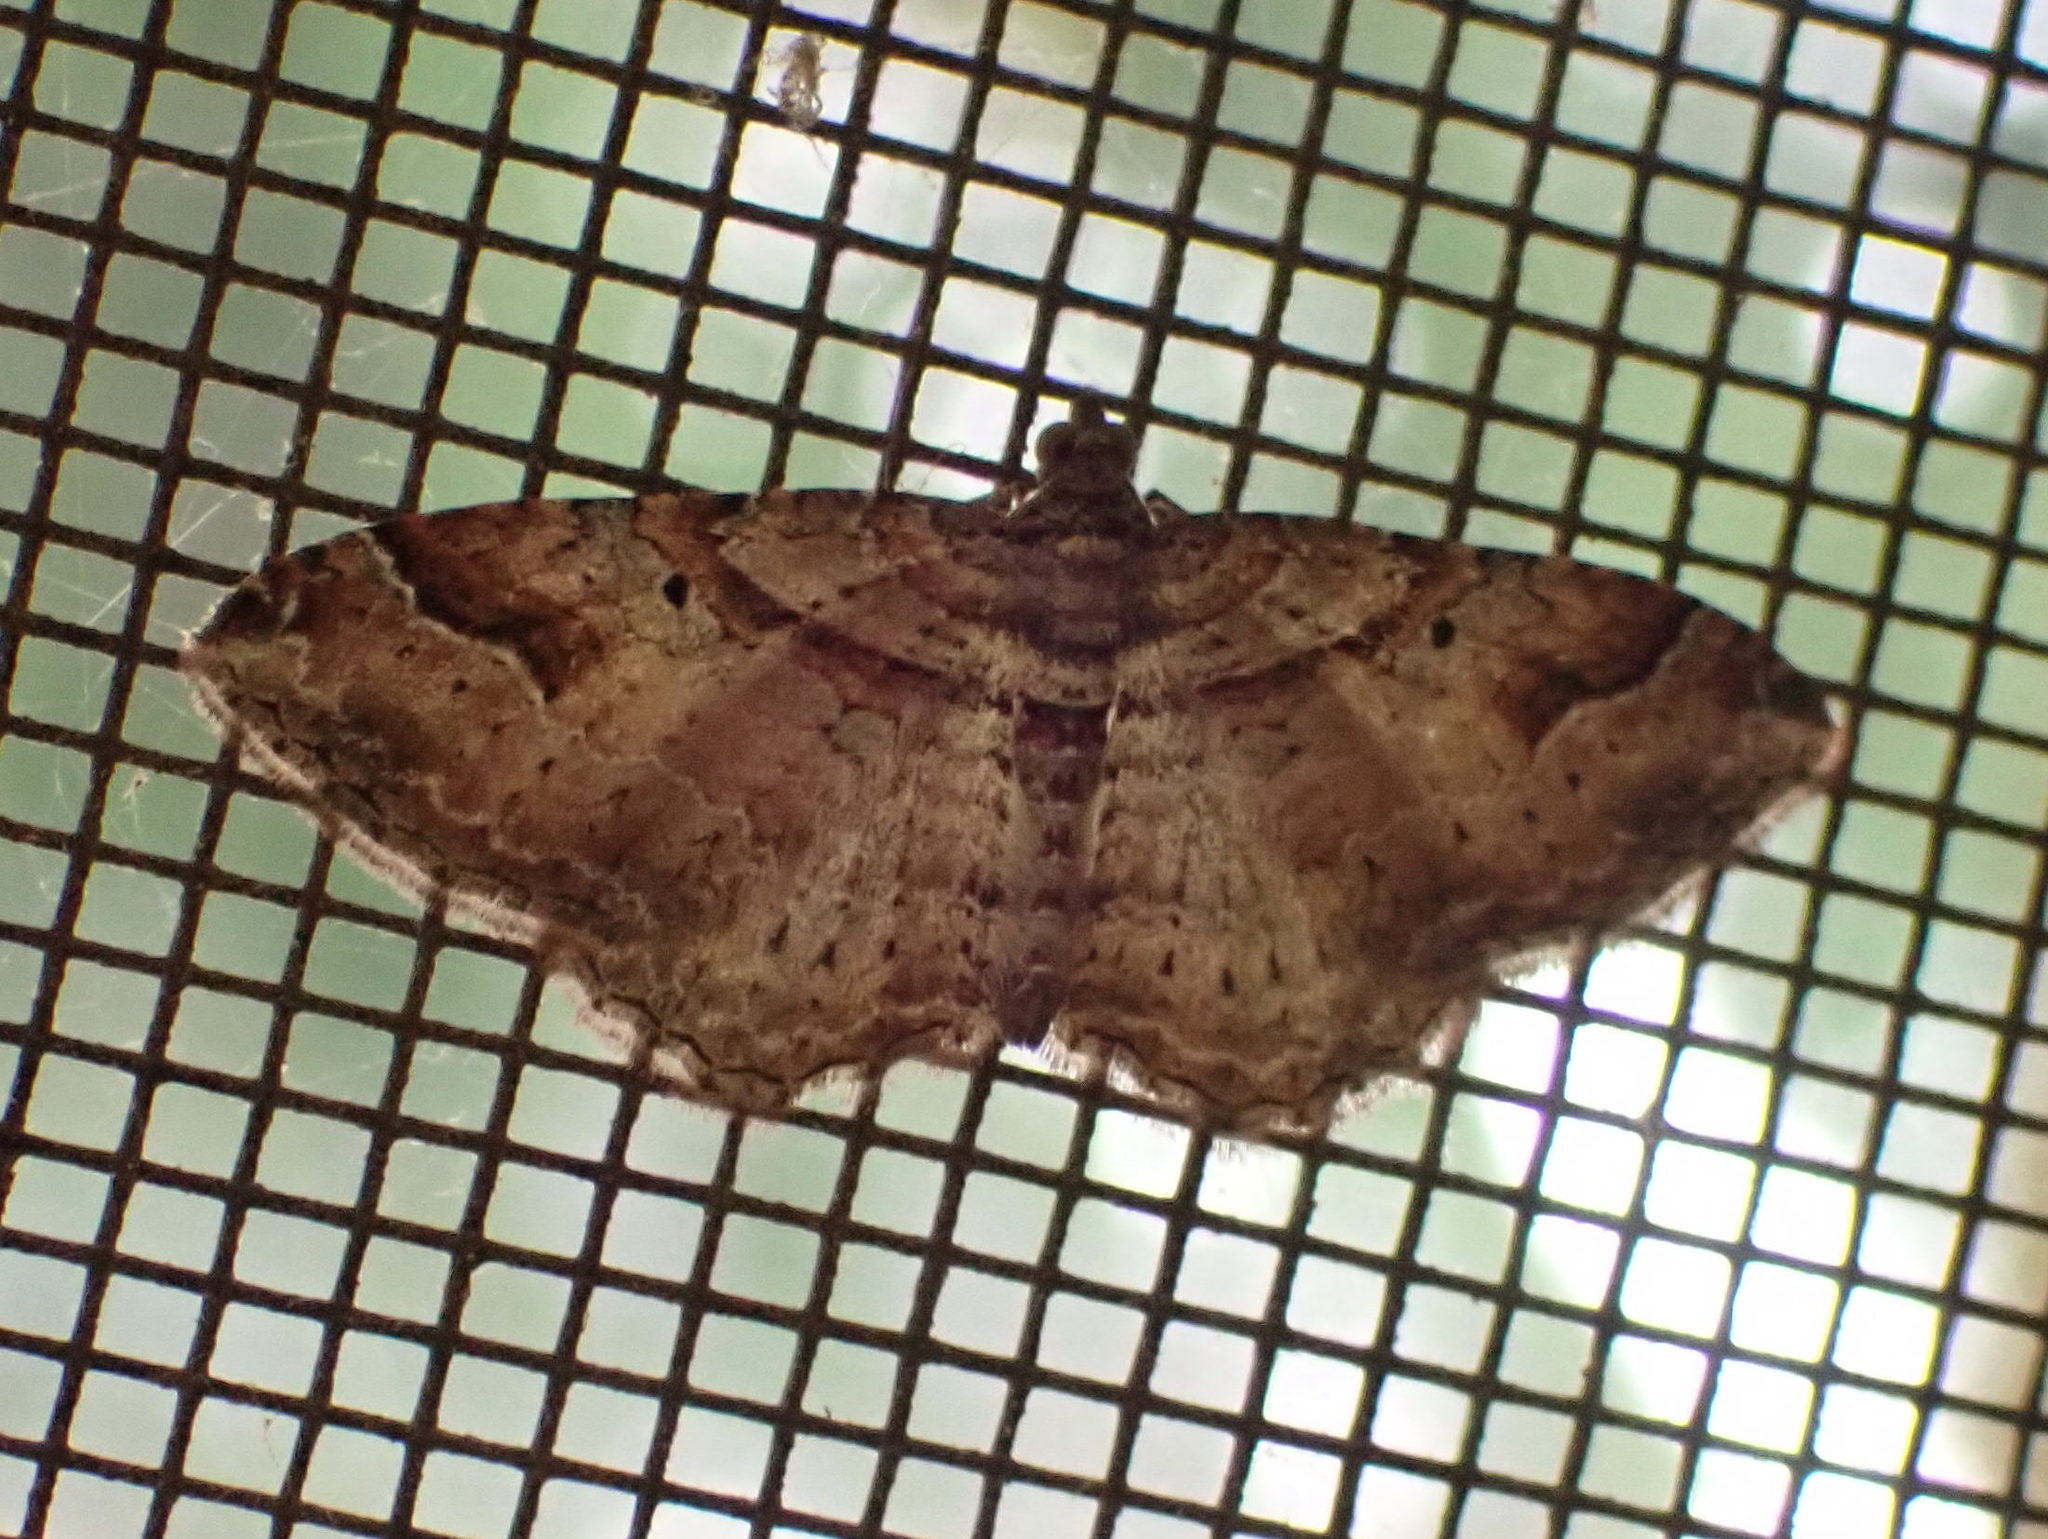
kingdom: Animalia
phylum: Arthropoda
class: Insecta
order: Lepidoptera
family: Geometridae
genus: Costaconvexa
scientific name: Costaconvexa centrostrigaria
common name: Bent-line carpet
